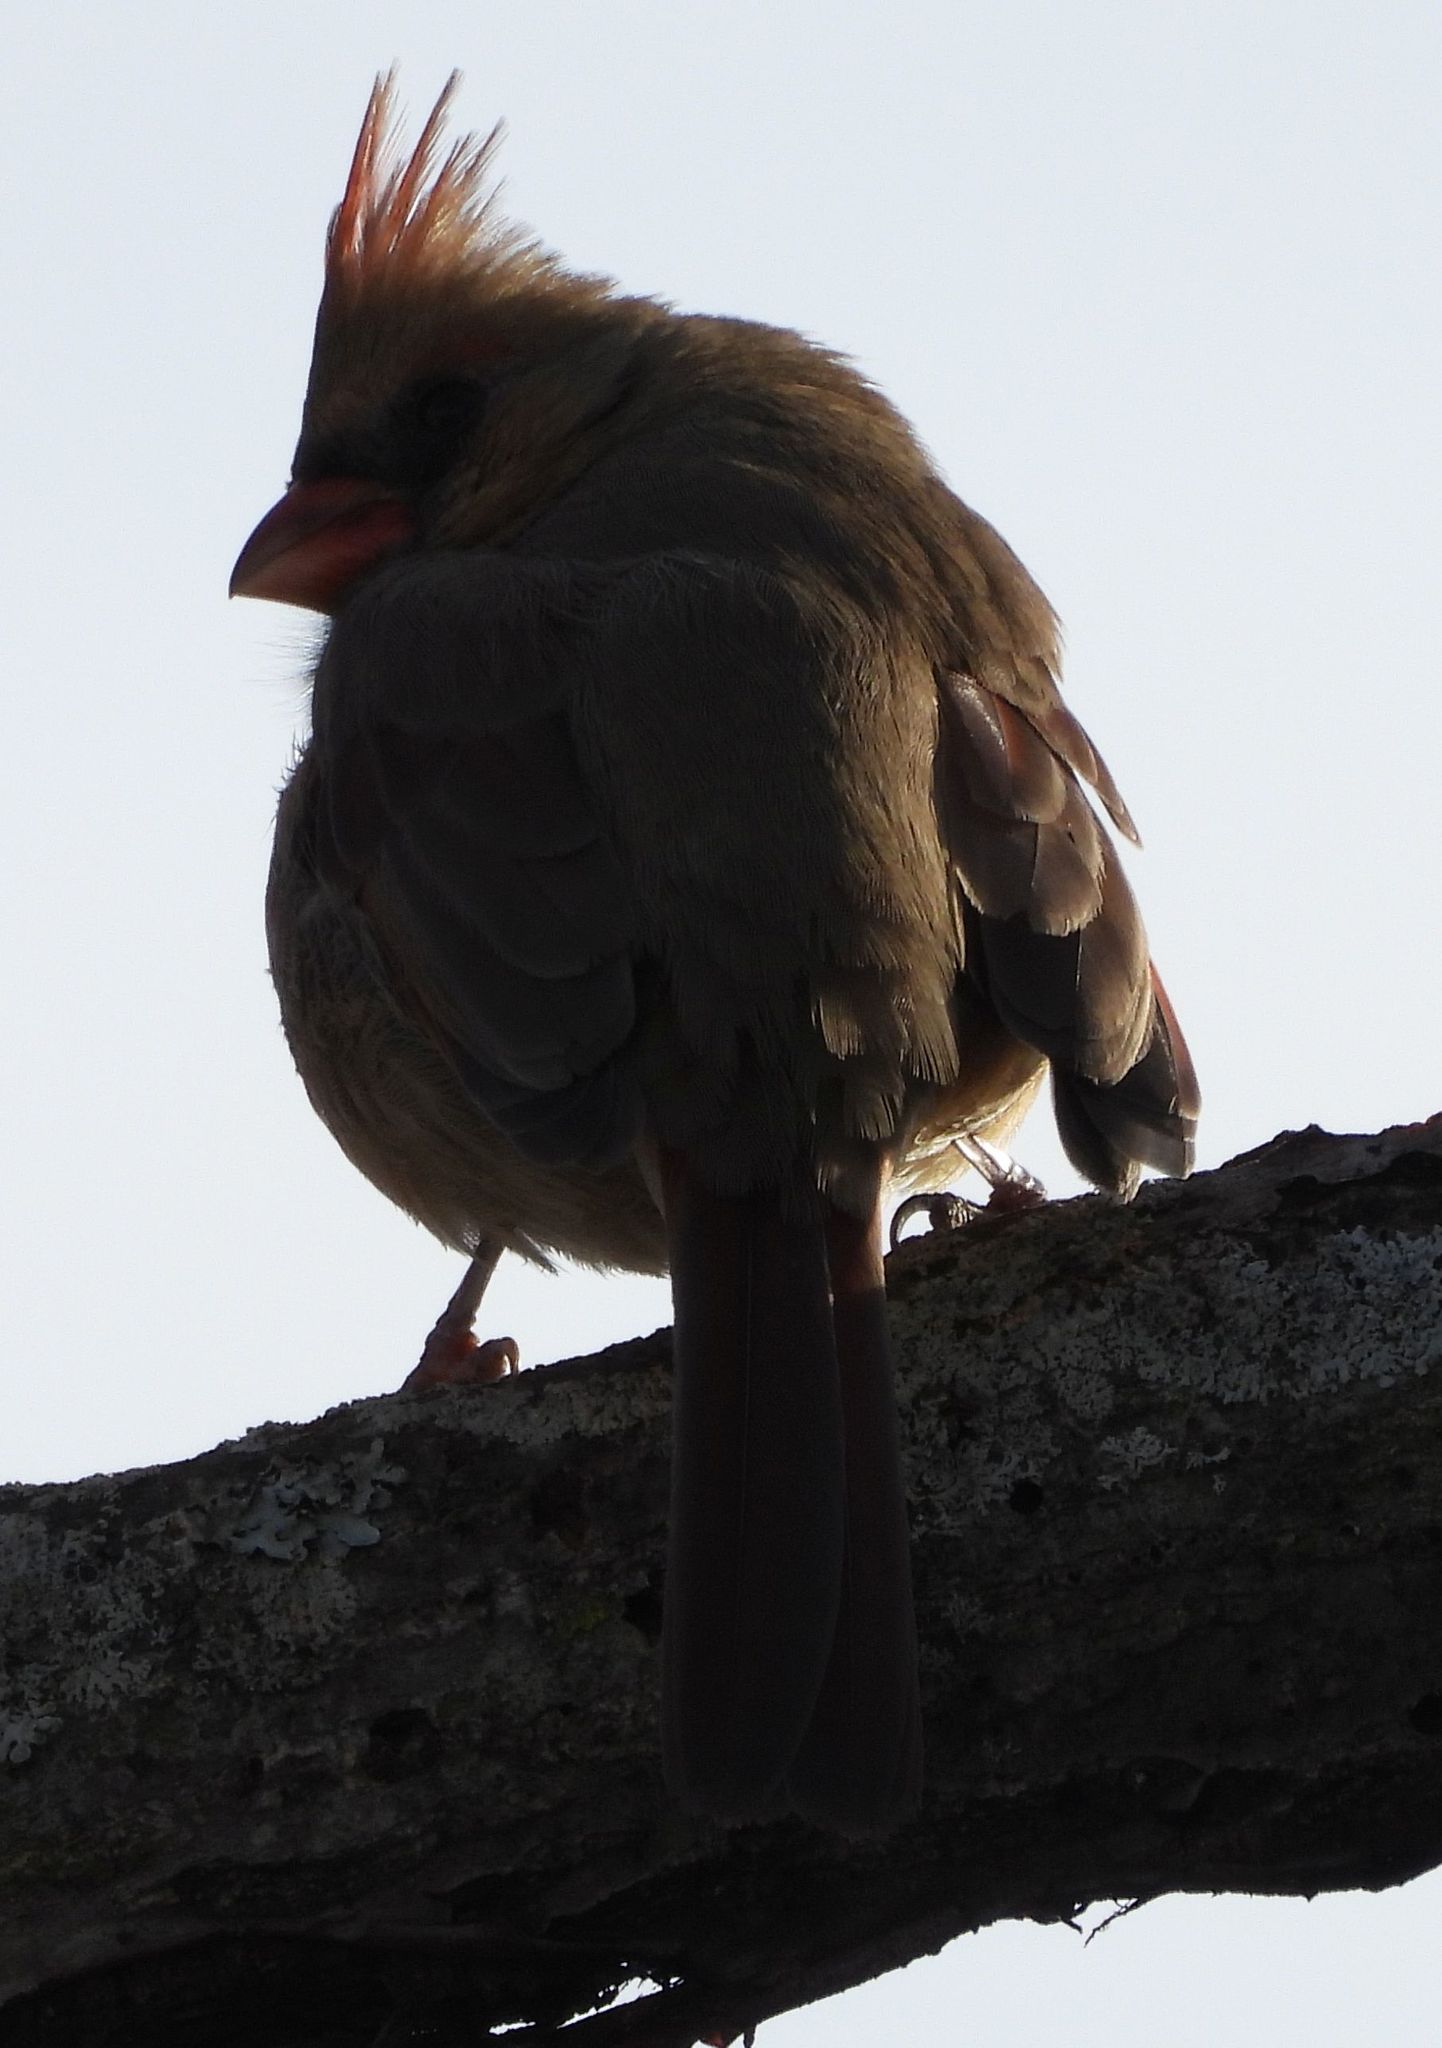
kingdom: Animalia
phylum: Chordata
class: Aves
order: Passeriformes
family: Cardinalidae
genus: Cardinalis
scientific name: Cardinalis cardinalis
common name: Northern cardinal
